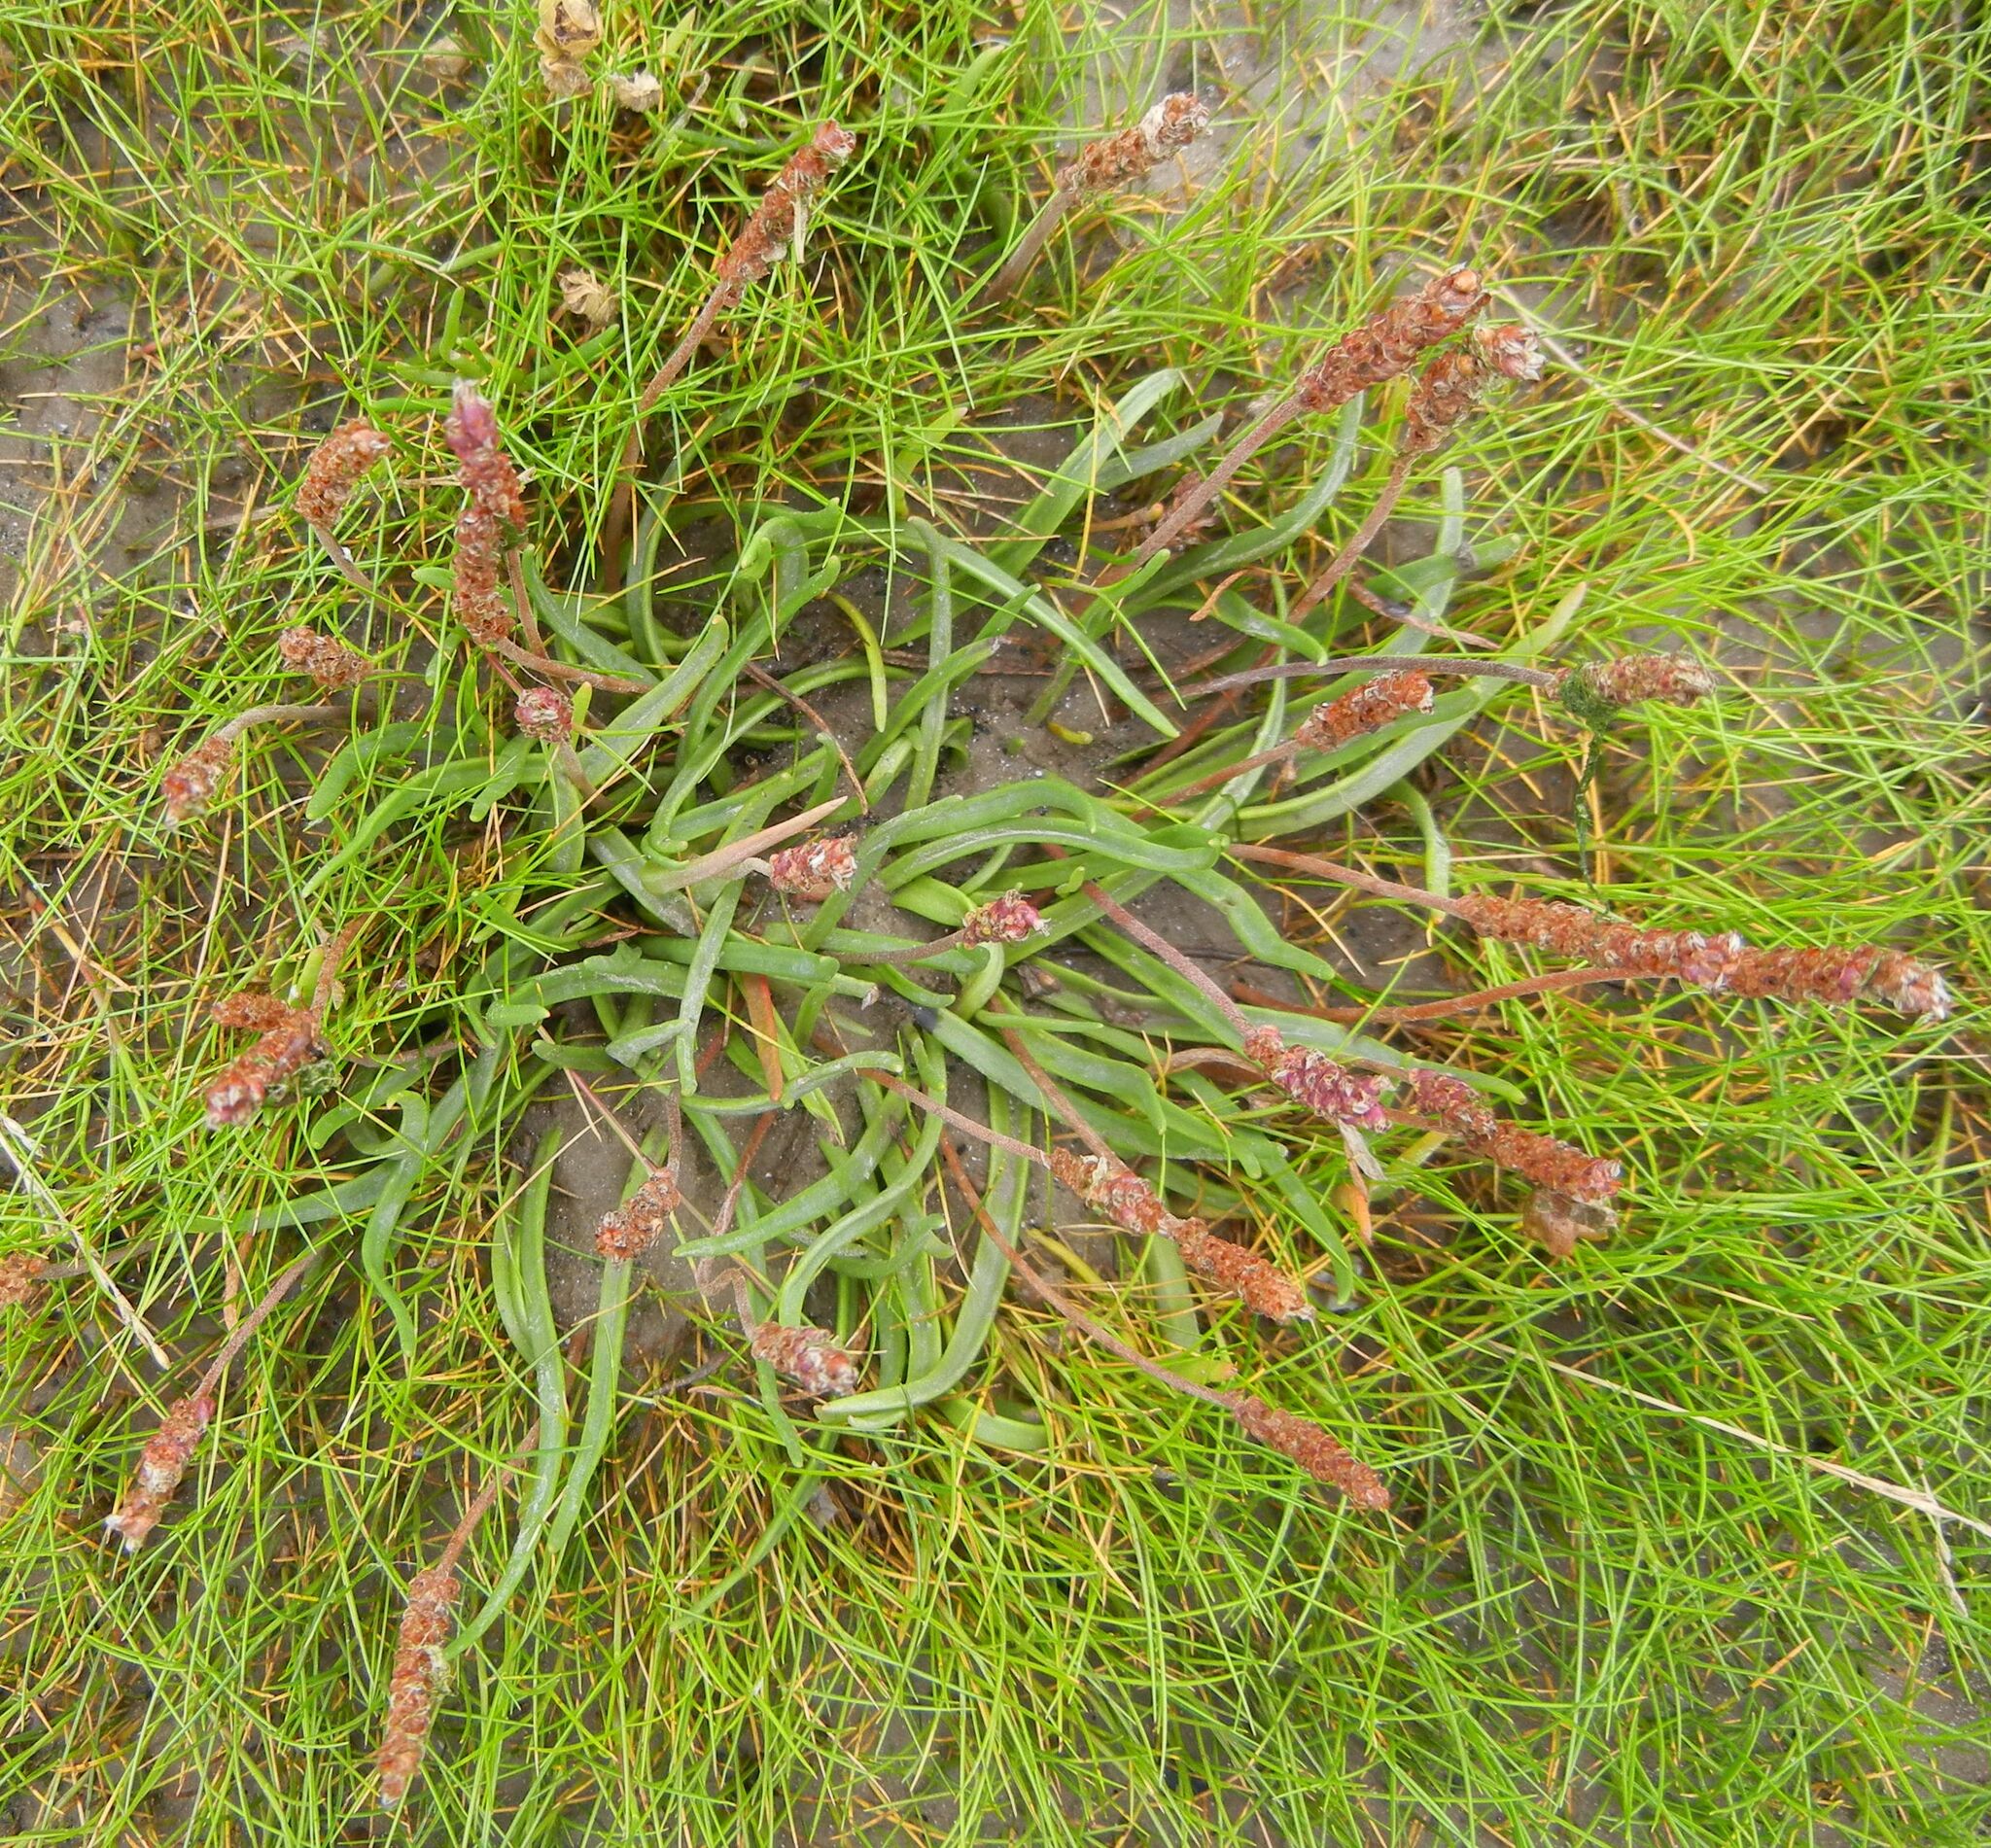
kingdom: Plantae
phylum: Tracheophyta
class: Magnoliopsida
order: Lamiales
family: Plantaginaceae
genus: Plantago
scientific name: Plantago maritima
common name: Sea plantain
